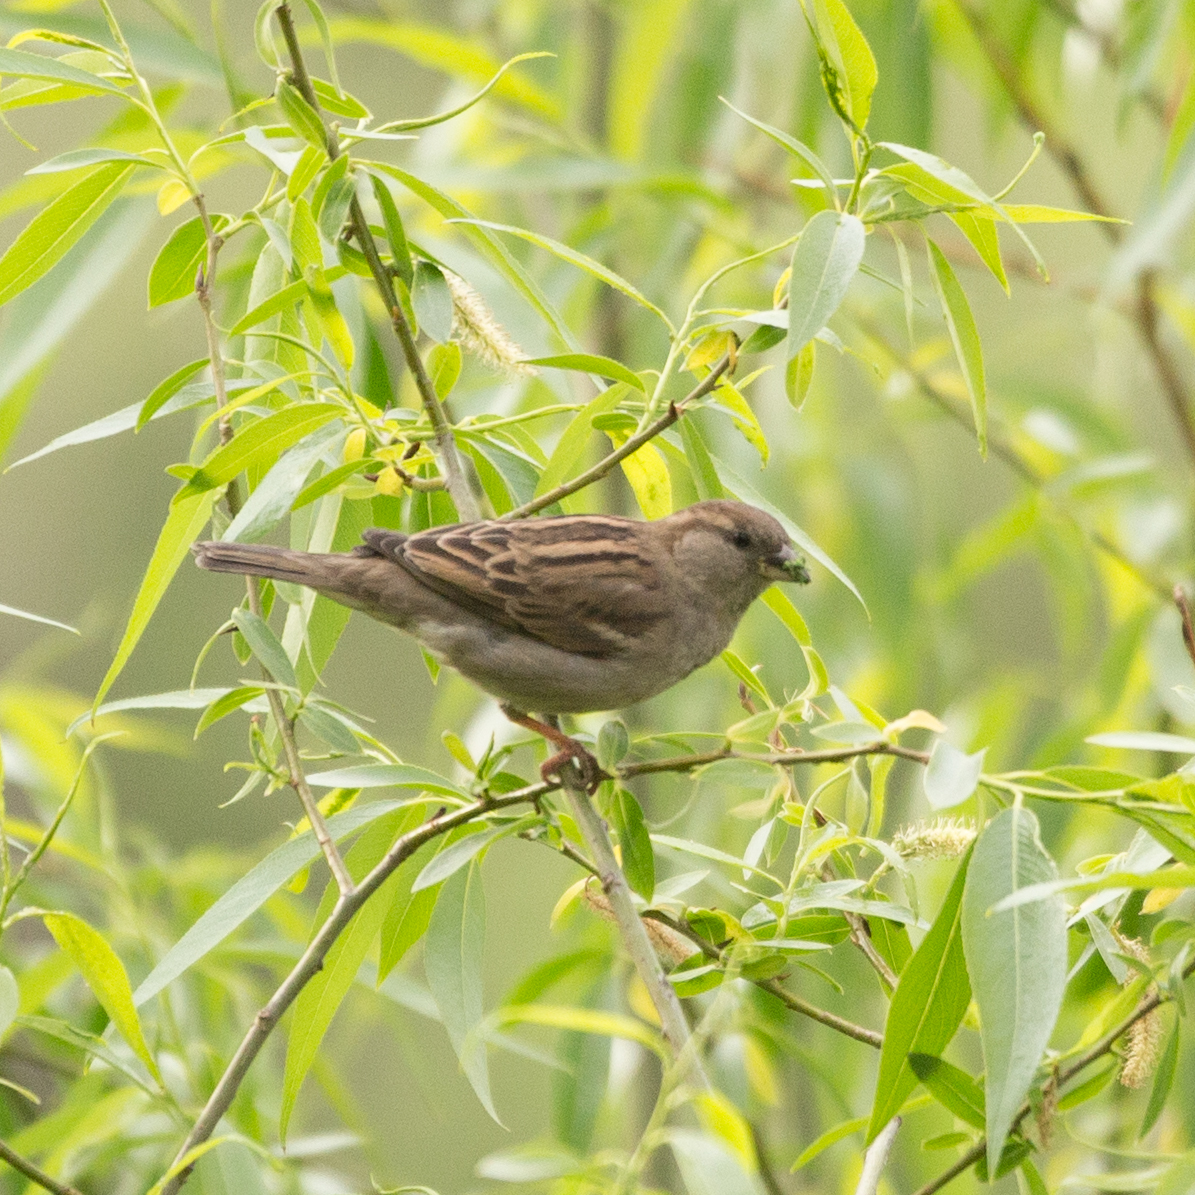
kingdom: Animalia
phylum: Chordata
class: Aves
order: Passeriformes
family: Passeridae
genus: Passer
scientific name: Passer domesticus
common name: House sparrow
